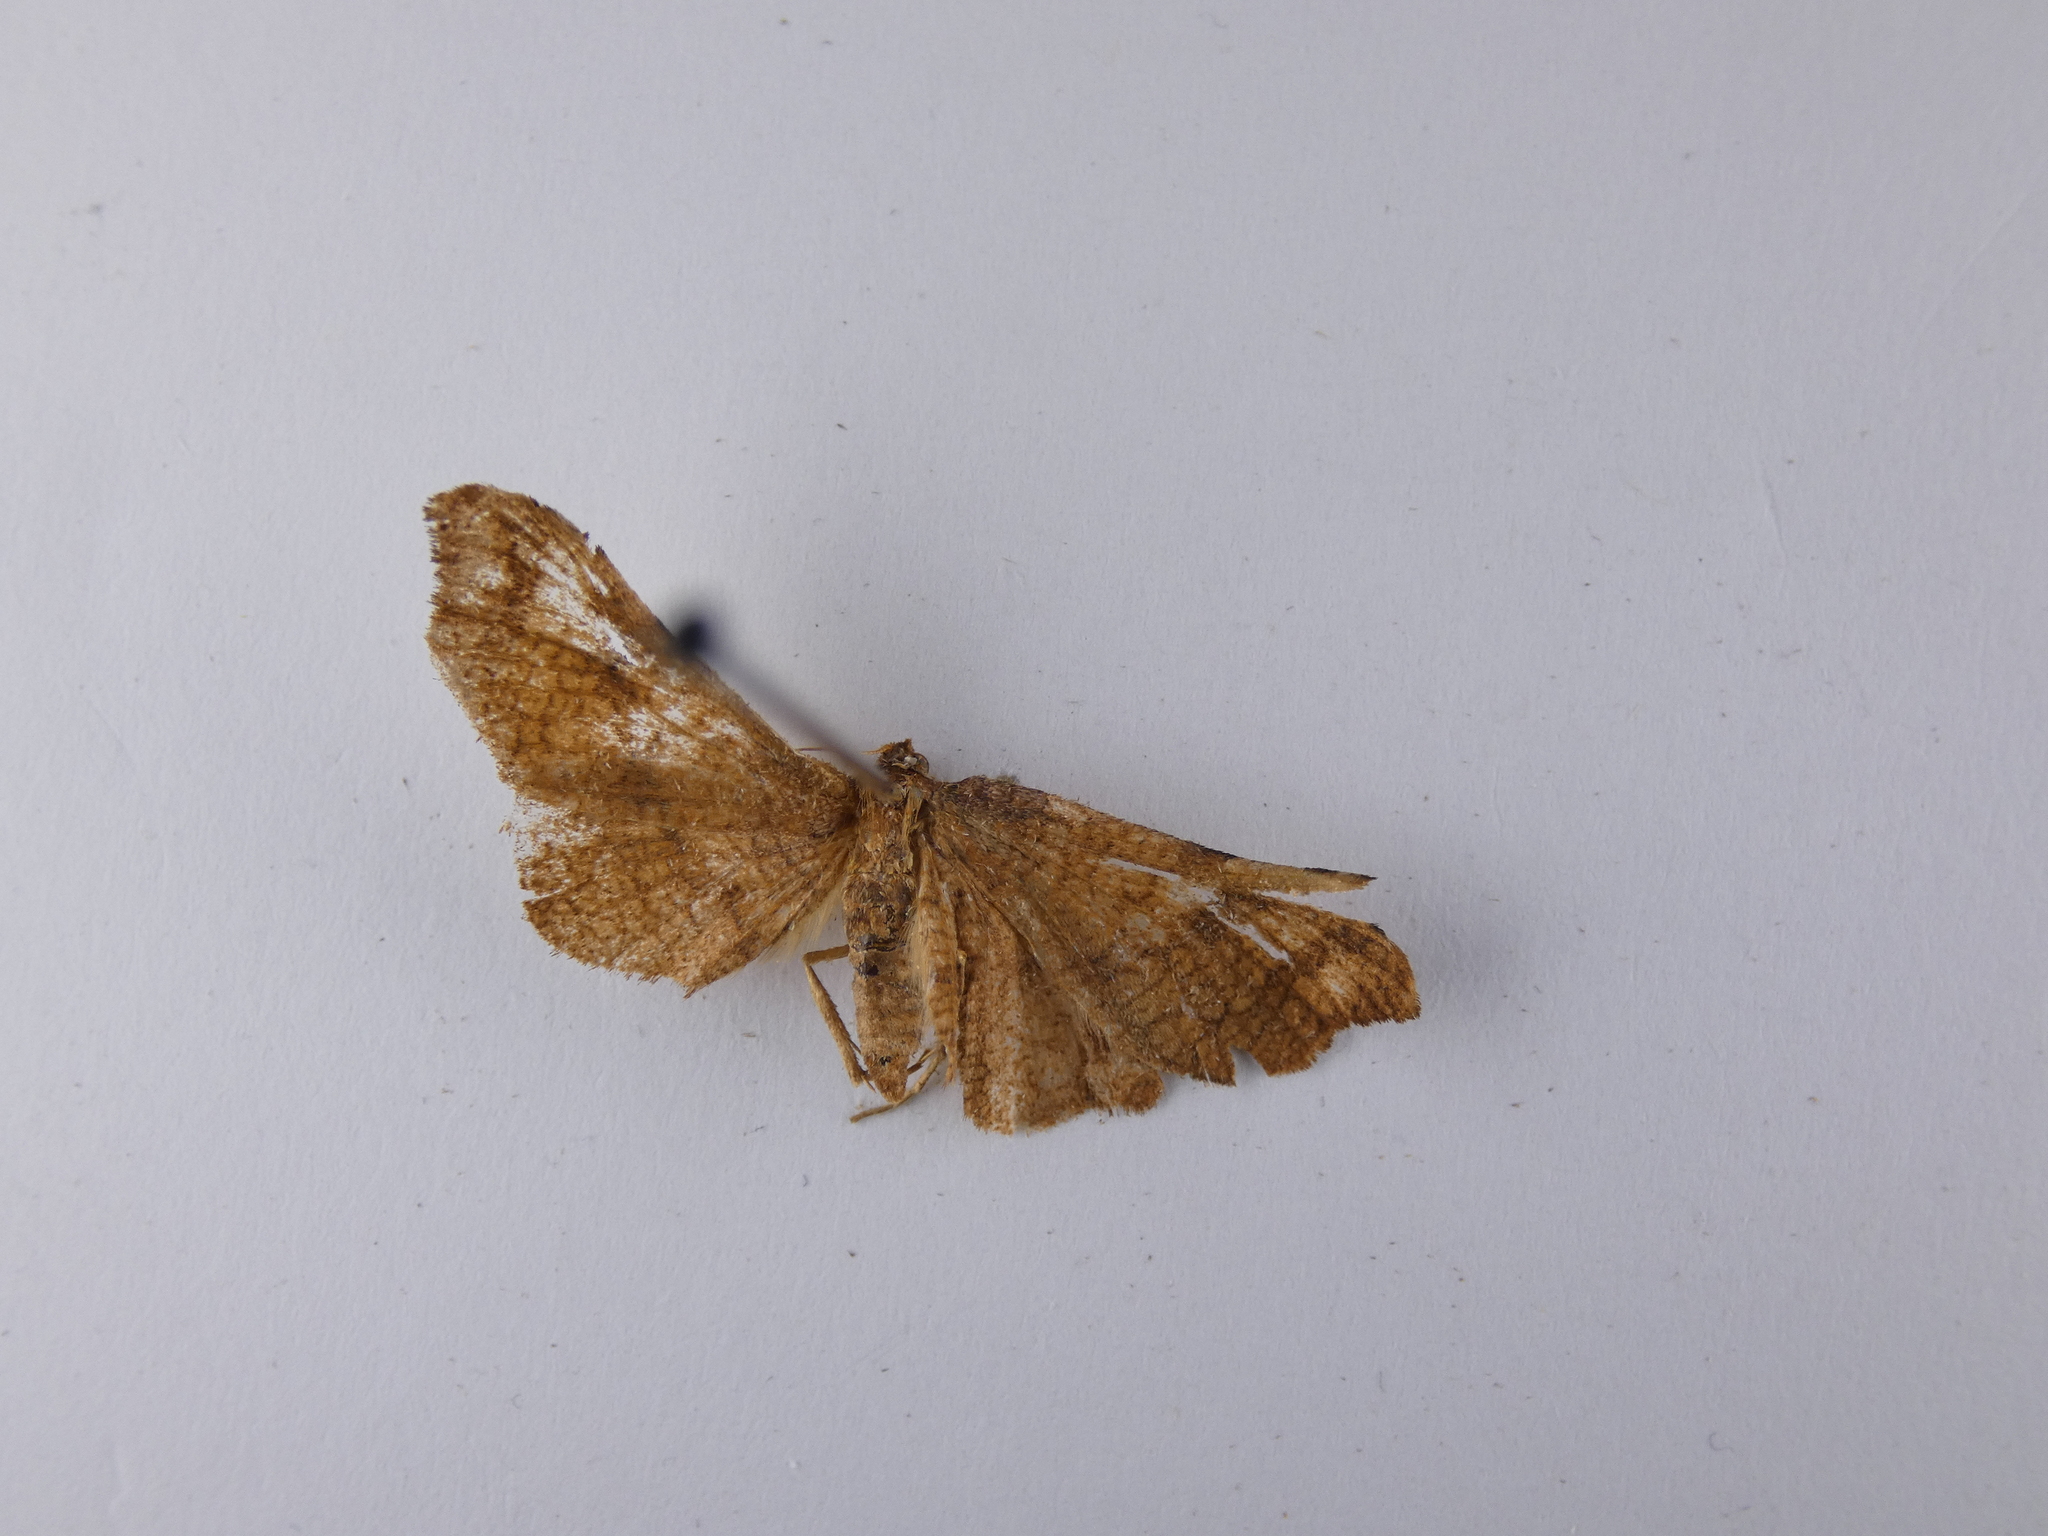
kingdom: Animalia
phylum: Arthropoda
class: Insecta
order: Lepidoptera
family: Thyrididae
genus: Morova
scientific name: Morova subfasciata
